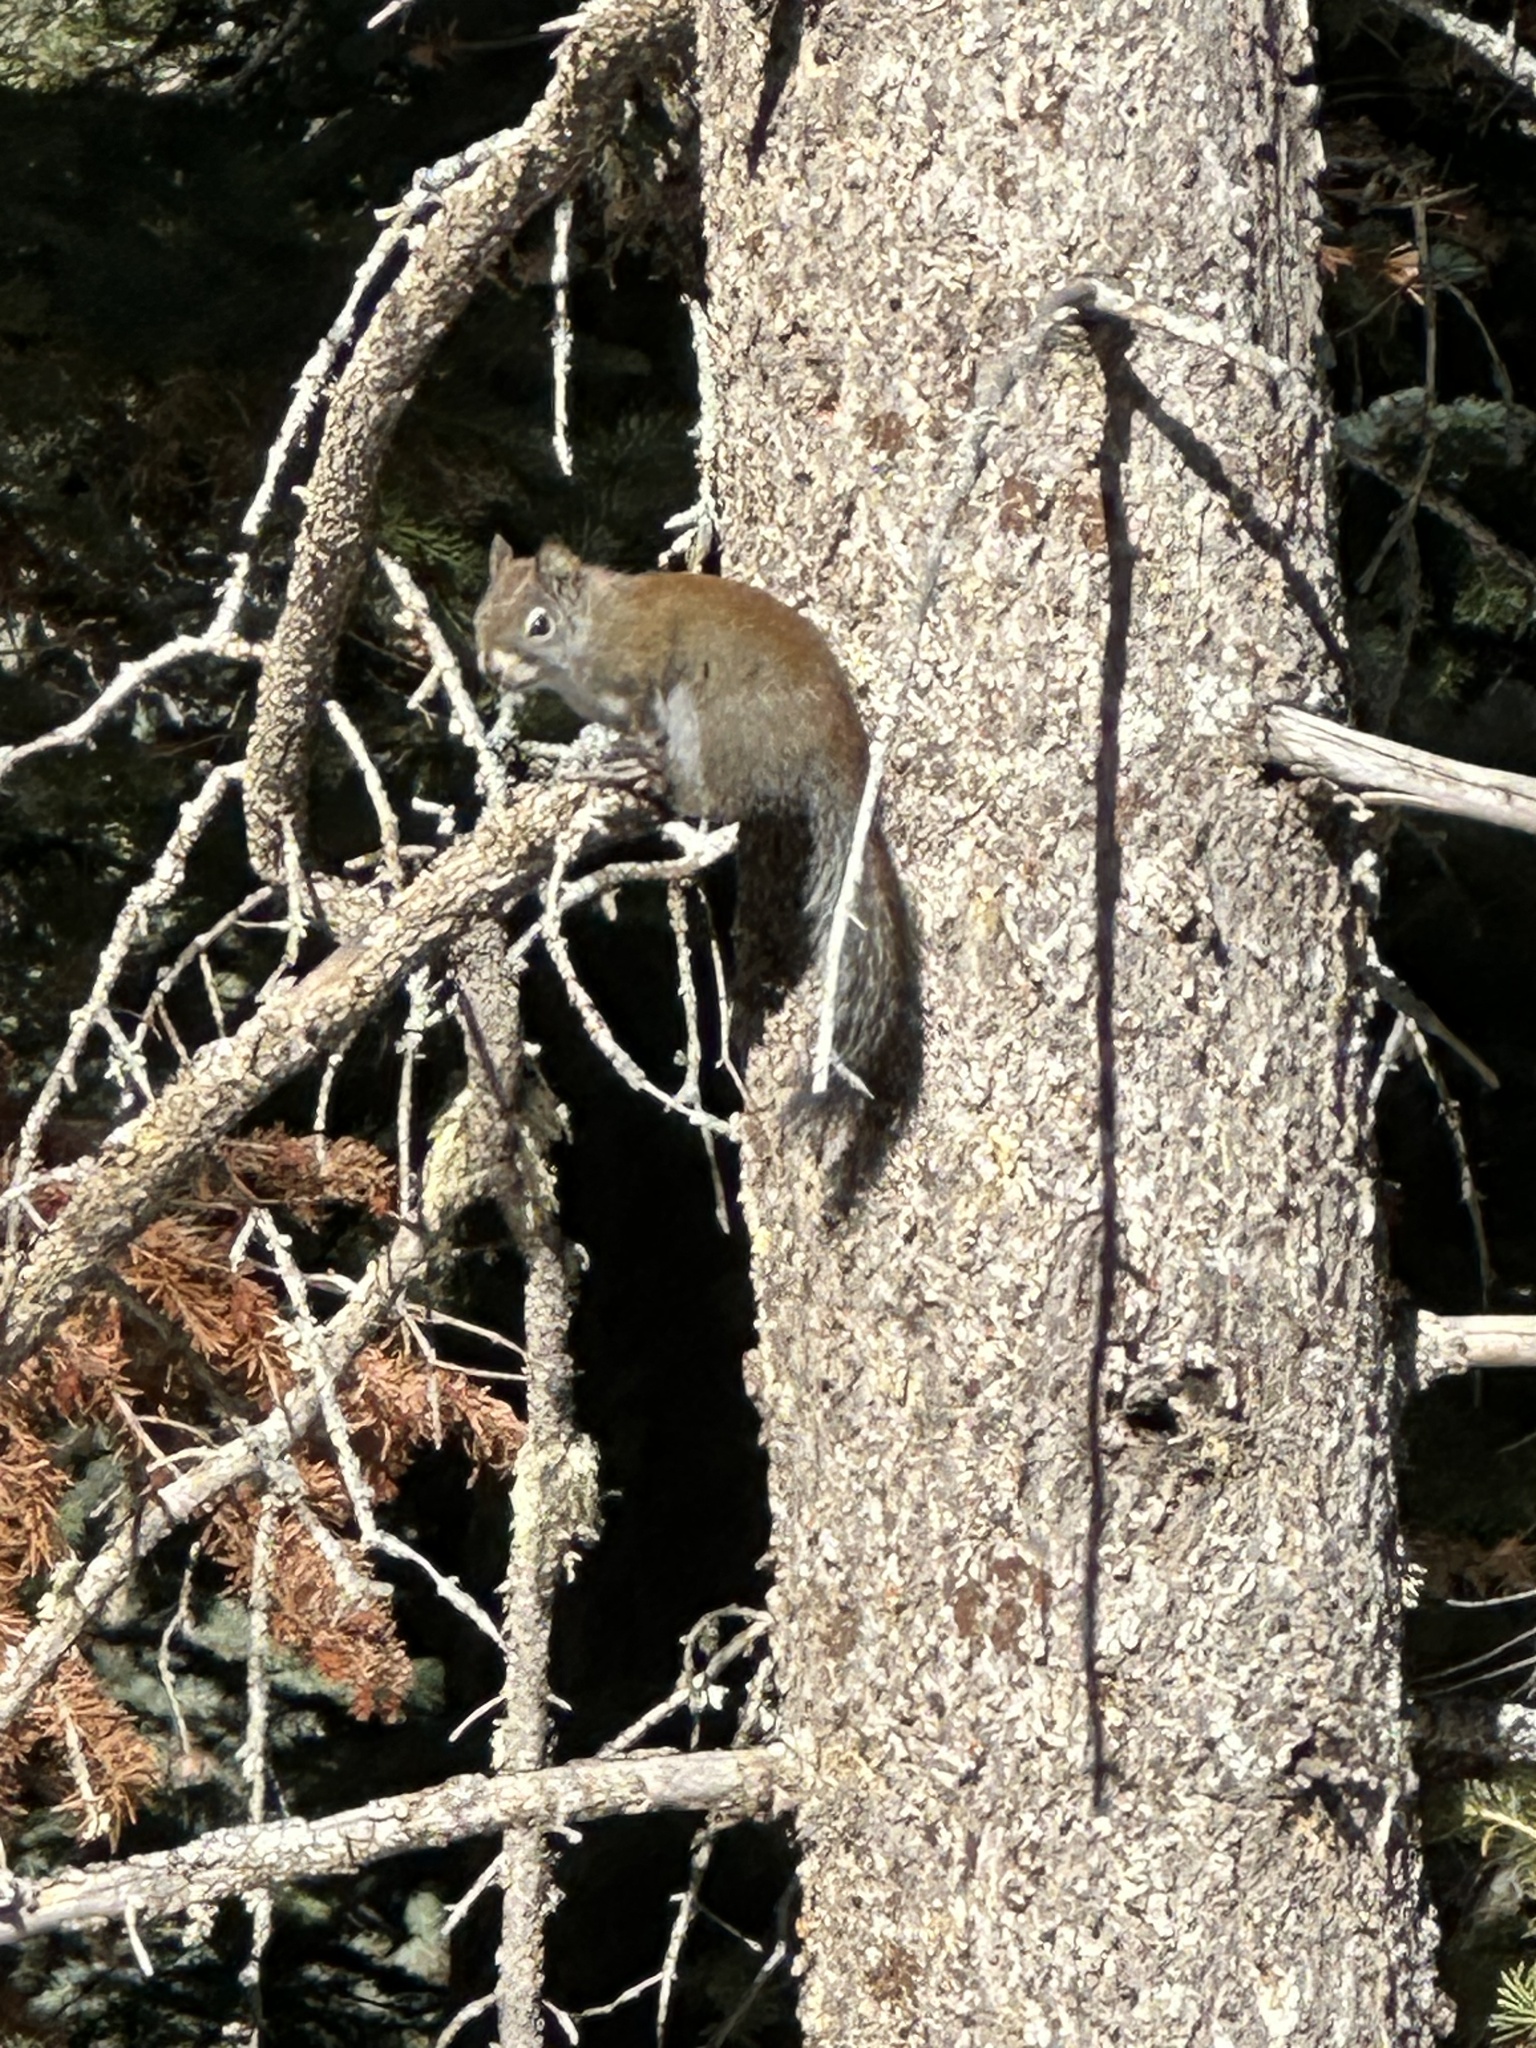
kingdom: Animalia
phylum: Chordata
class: Mammalia
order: Rodentia
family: Sciuridae
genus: Tamiasciurus
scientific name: Tamiasciurus hudsonicus
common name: Red squirrel
